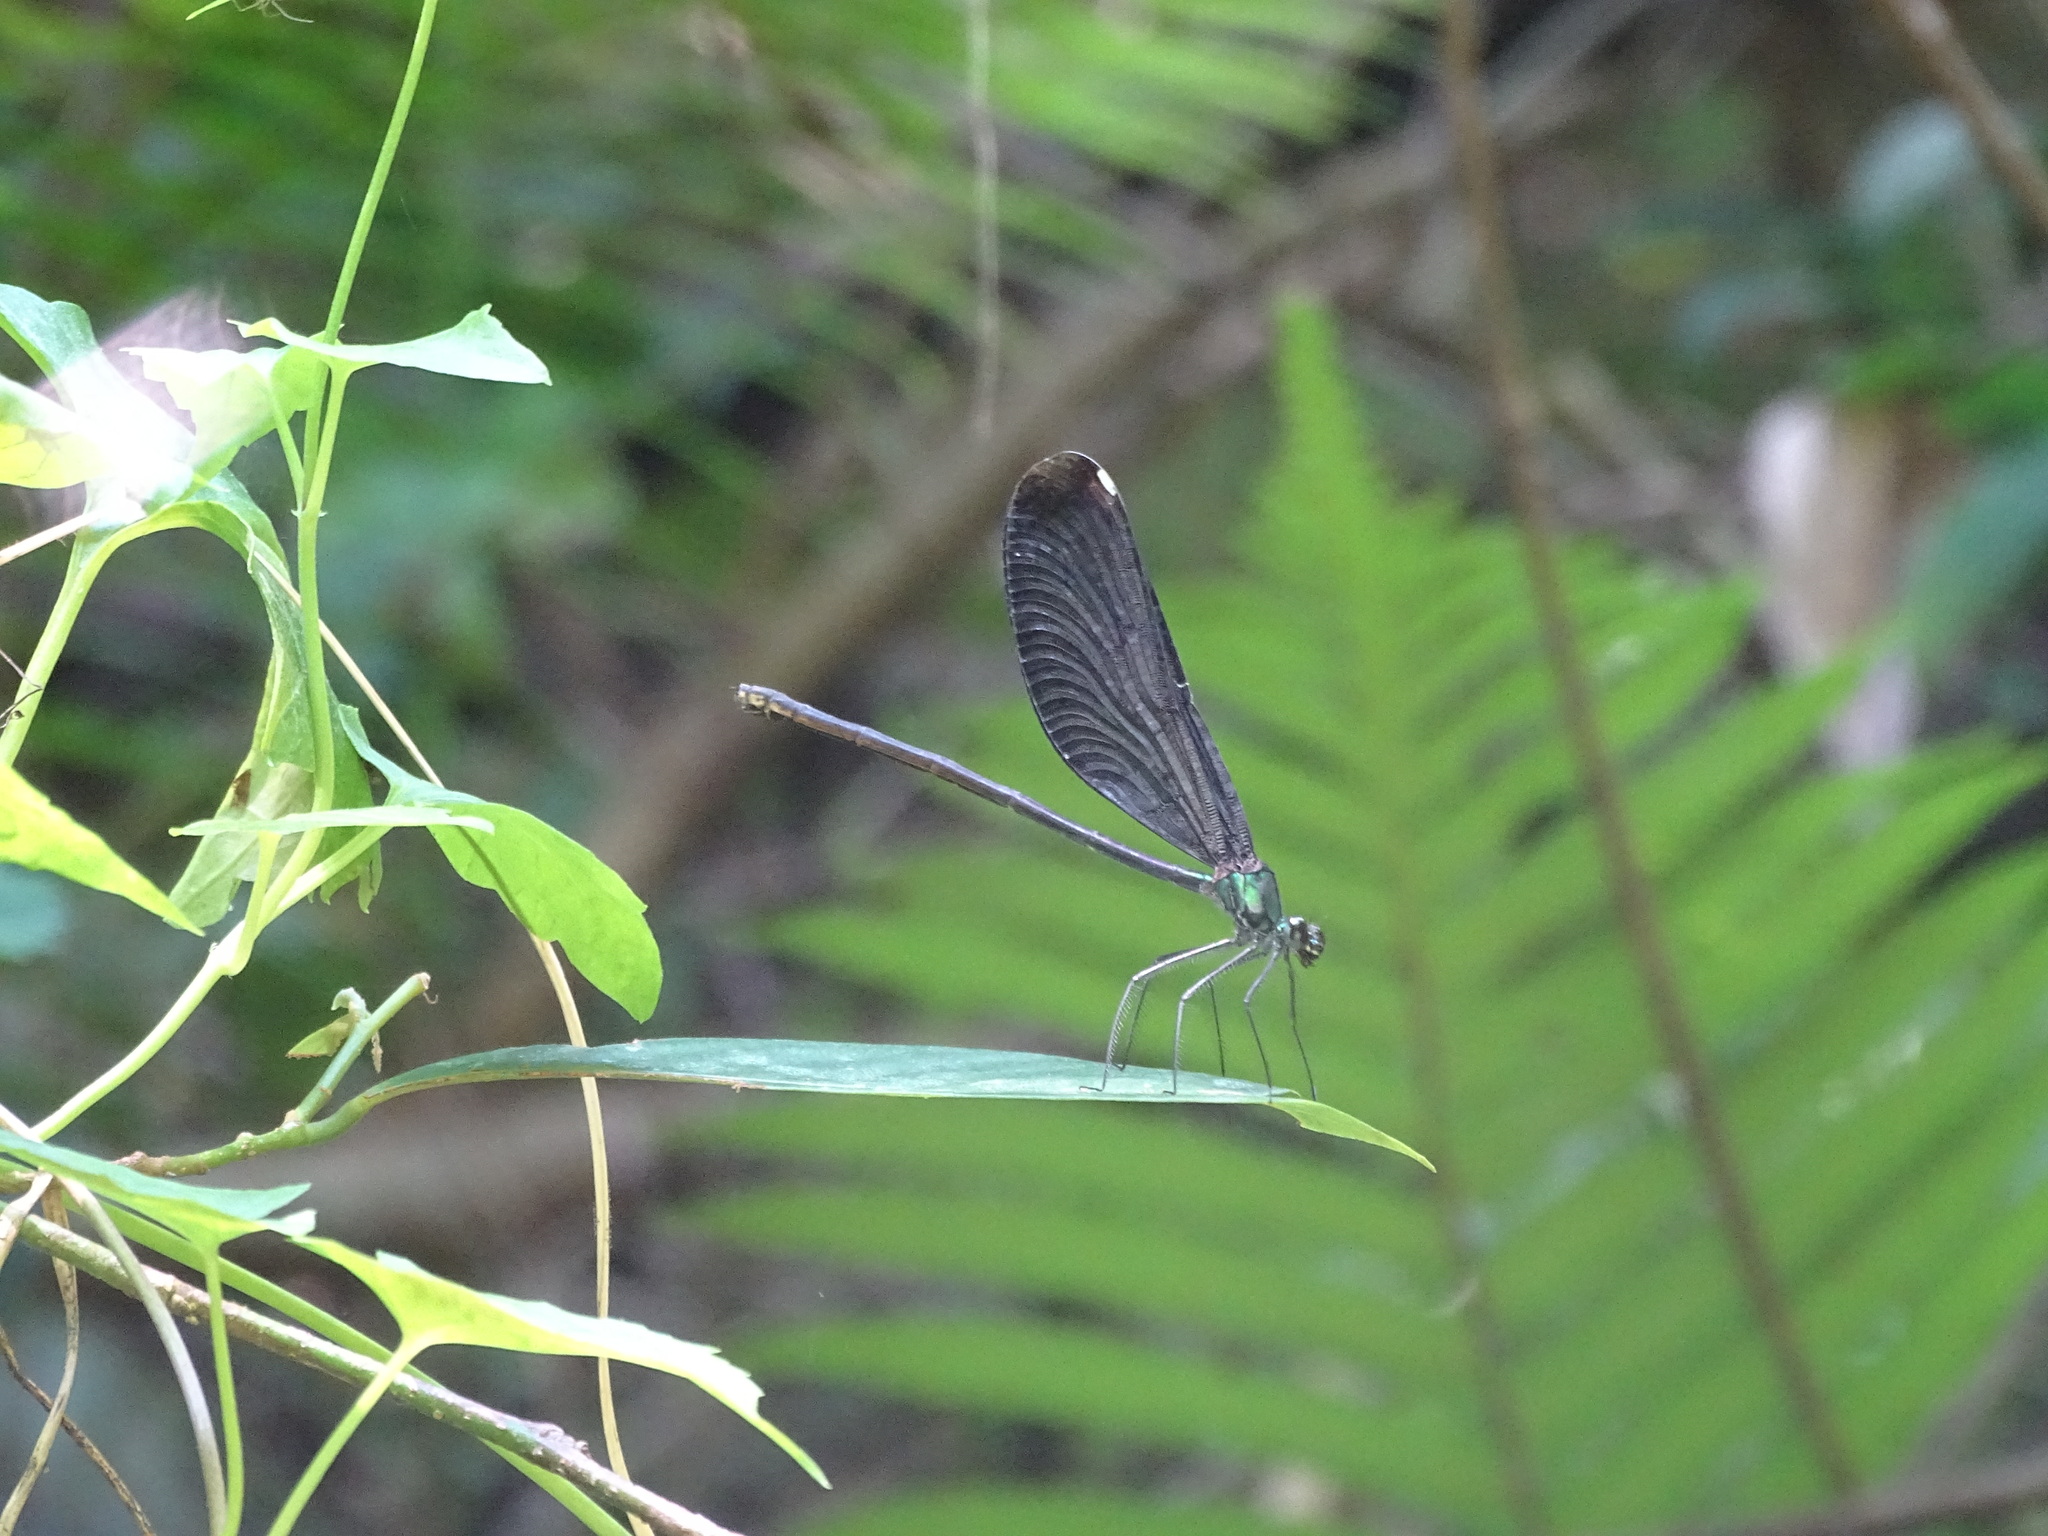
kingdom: Animalia
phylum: Arthropoda
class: Insecta
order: Odonata
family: Calopterygidae
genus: Matrona
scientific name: Matrona cyanoptera
